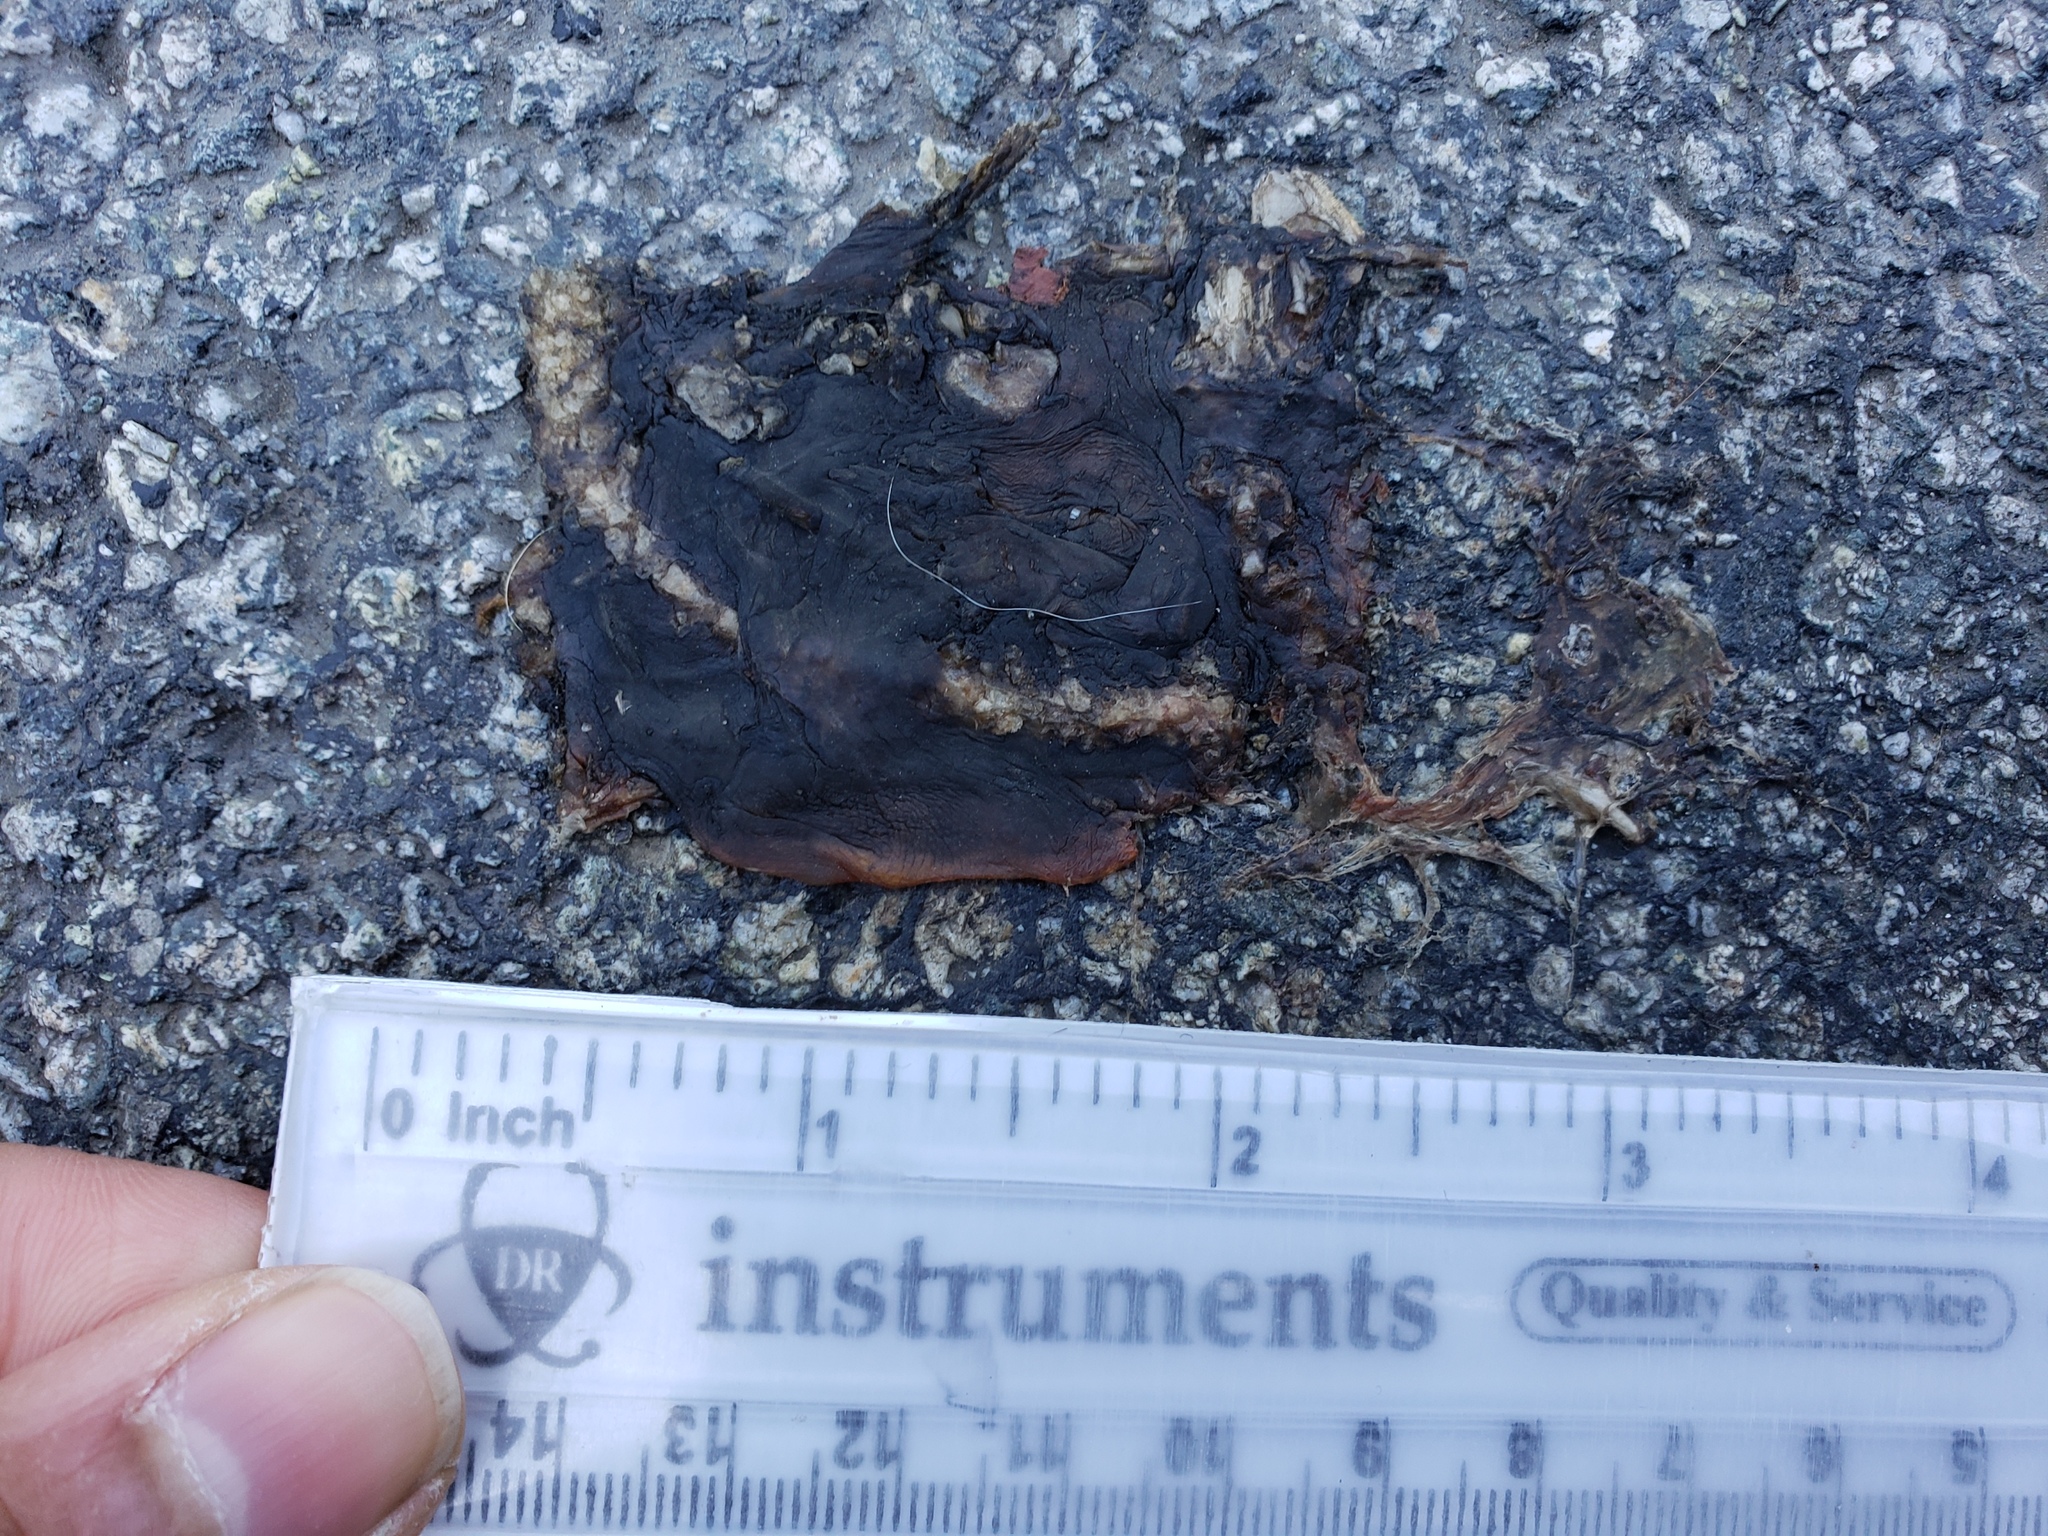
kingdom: Animalia
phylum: Chordata
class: Amphibia
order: Caudata
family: Salamandridae
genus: Taricha
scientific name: Taricha
